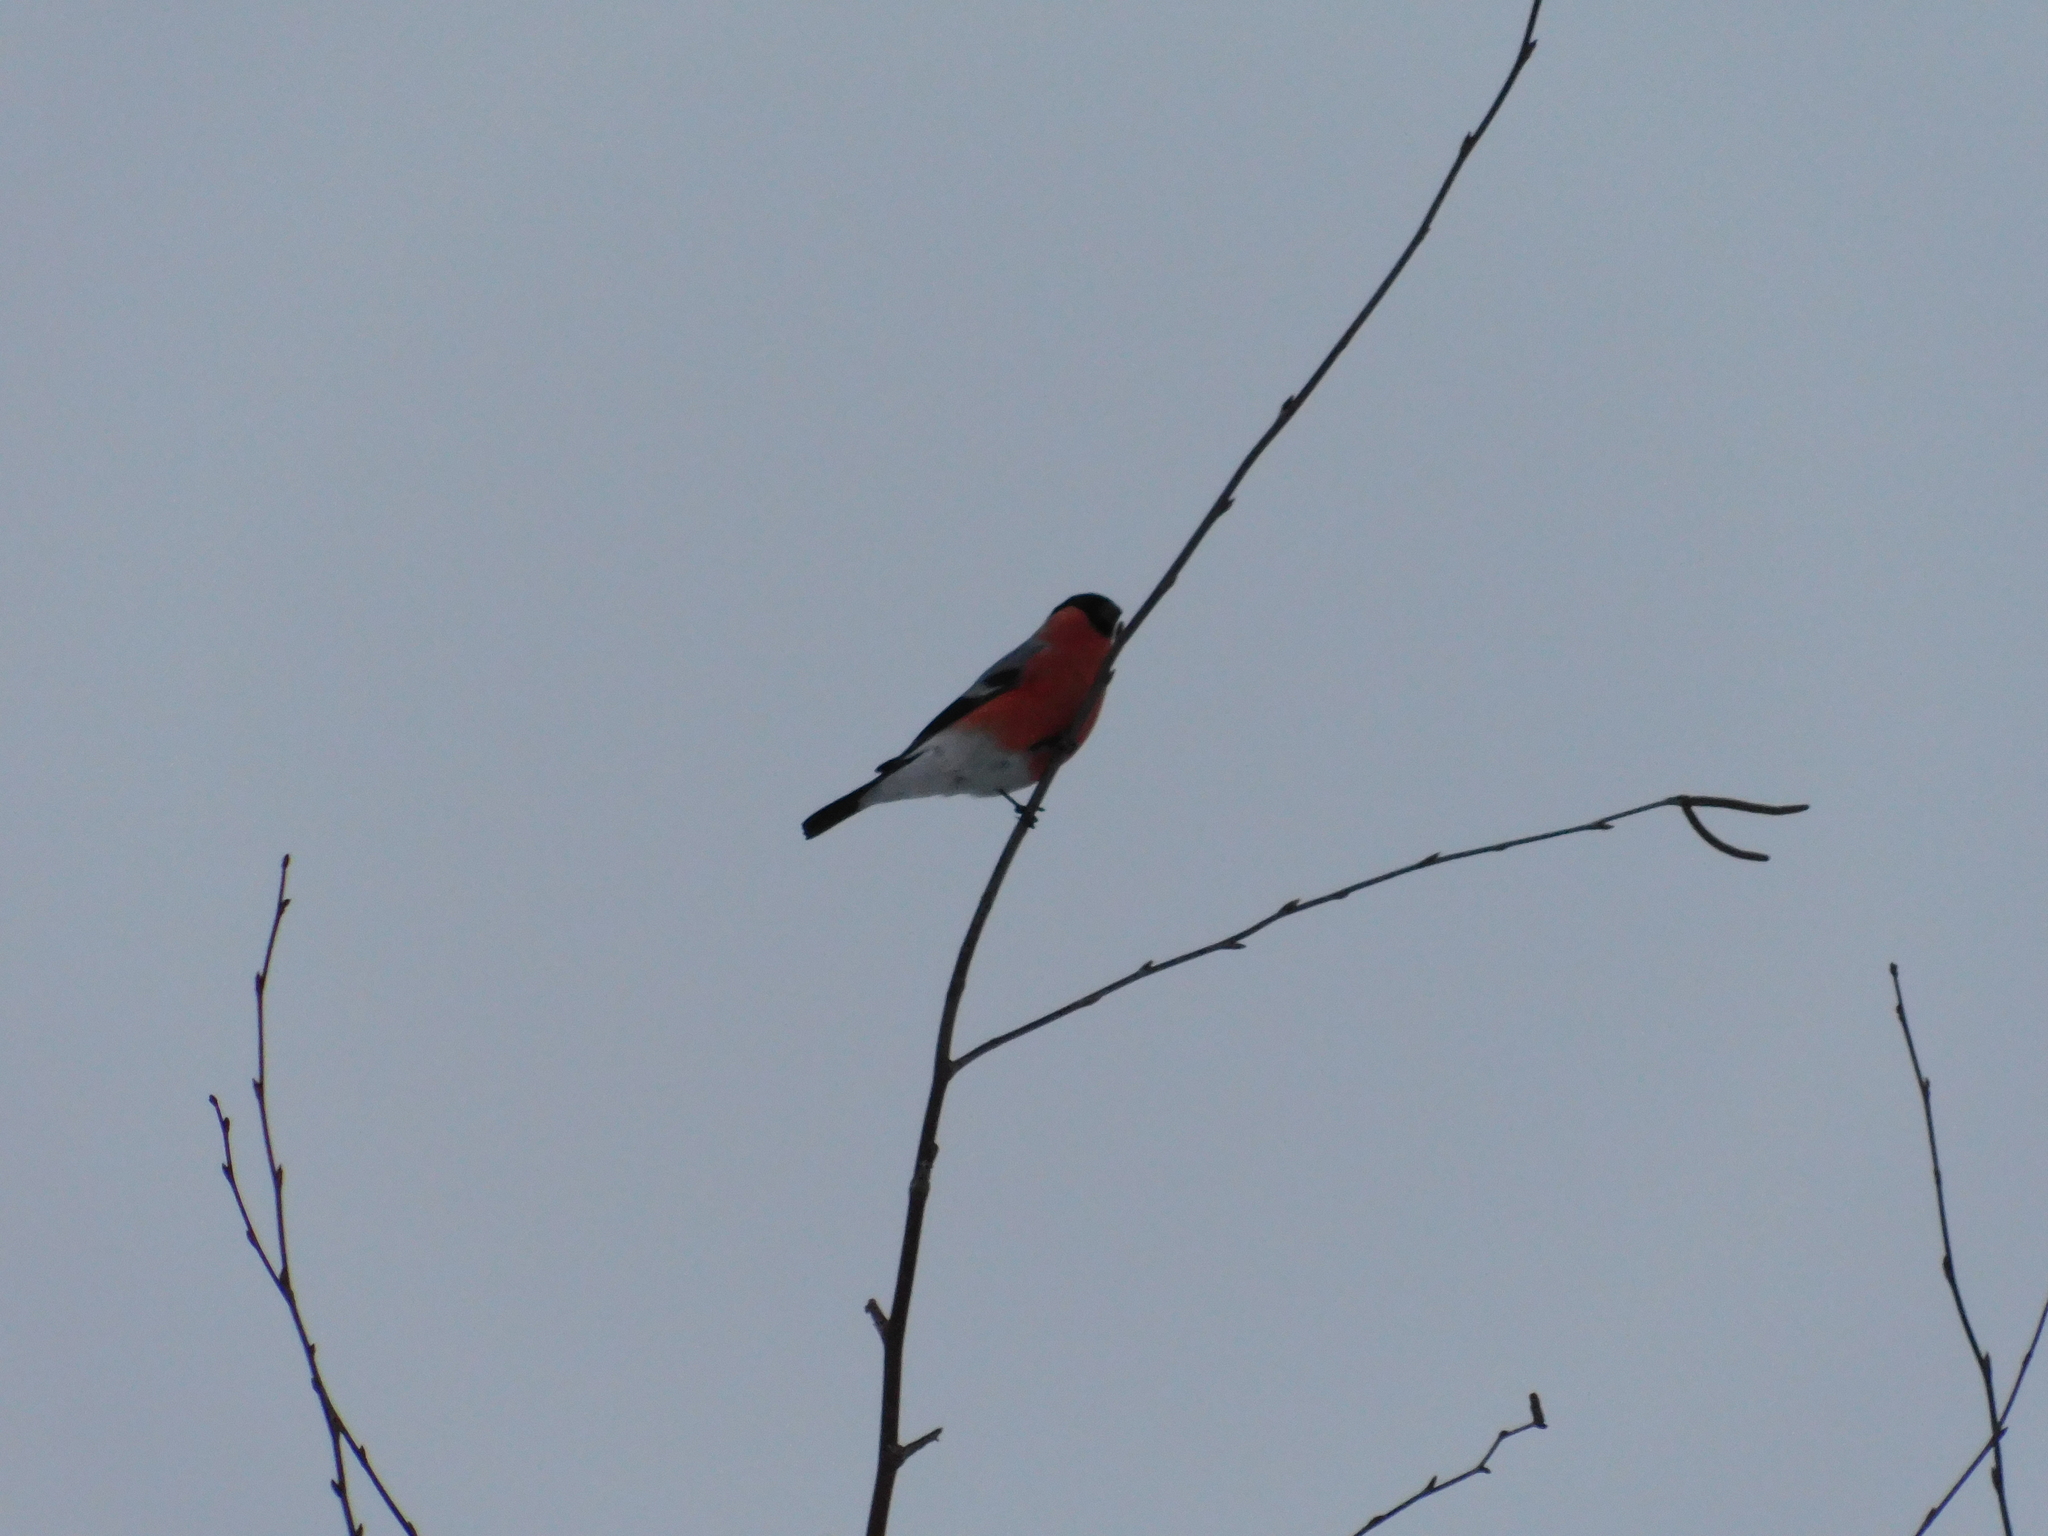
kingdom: Animalia
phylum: Chordata
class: Aves
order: Passeriformes
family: Fringillidae
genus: Pyrrhula
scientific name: Pyrrhula pyrrhula
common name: Eurasian bullfinch
